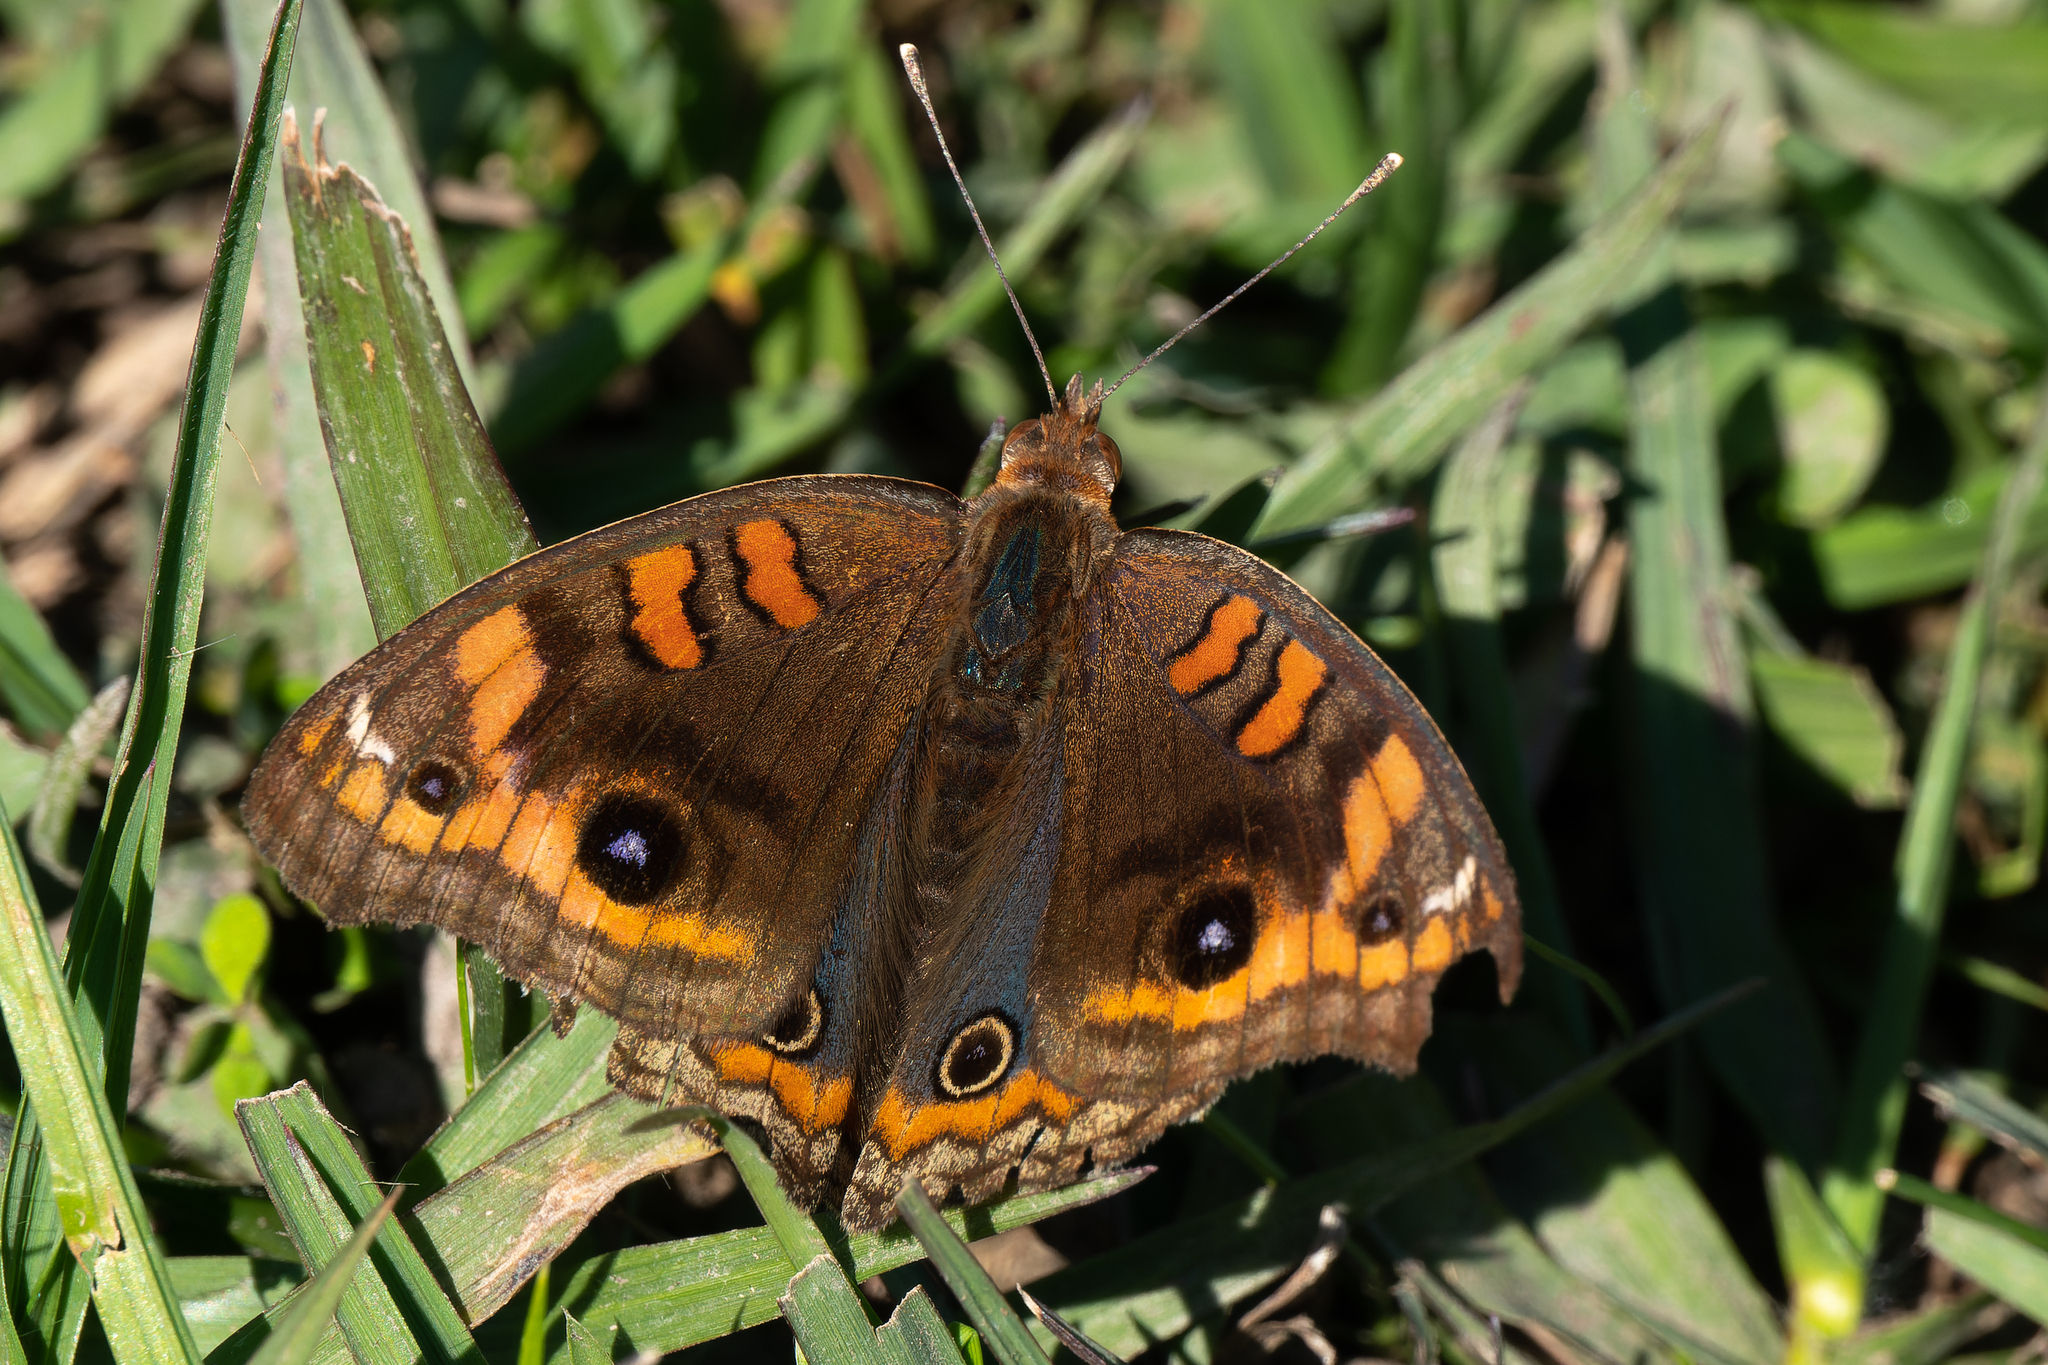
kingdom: Animalia
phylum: Arthropoda
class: Insecta
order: Lepidoptera
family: Nymphalidae
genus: Junonia
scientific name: Junonia lavinia
